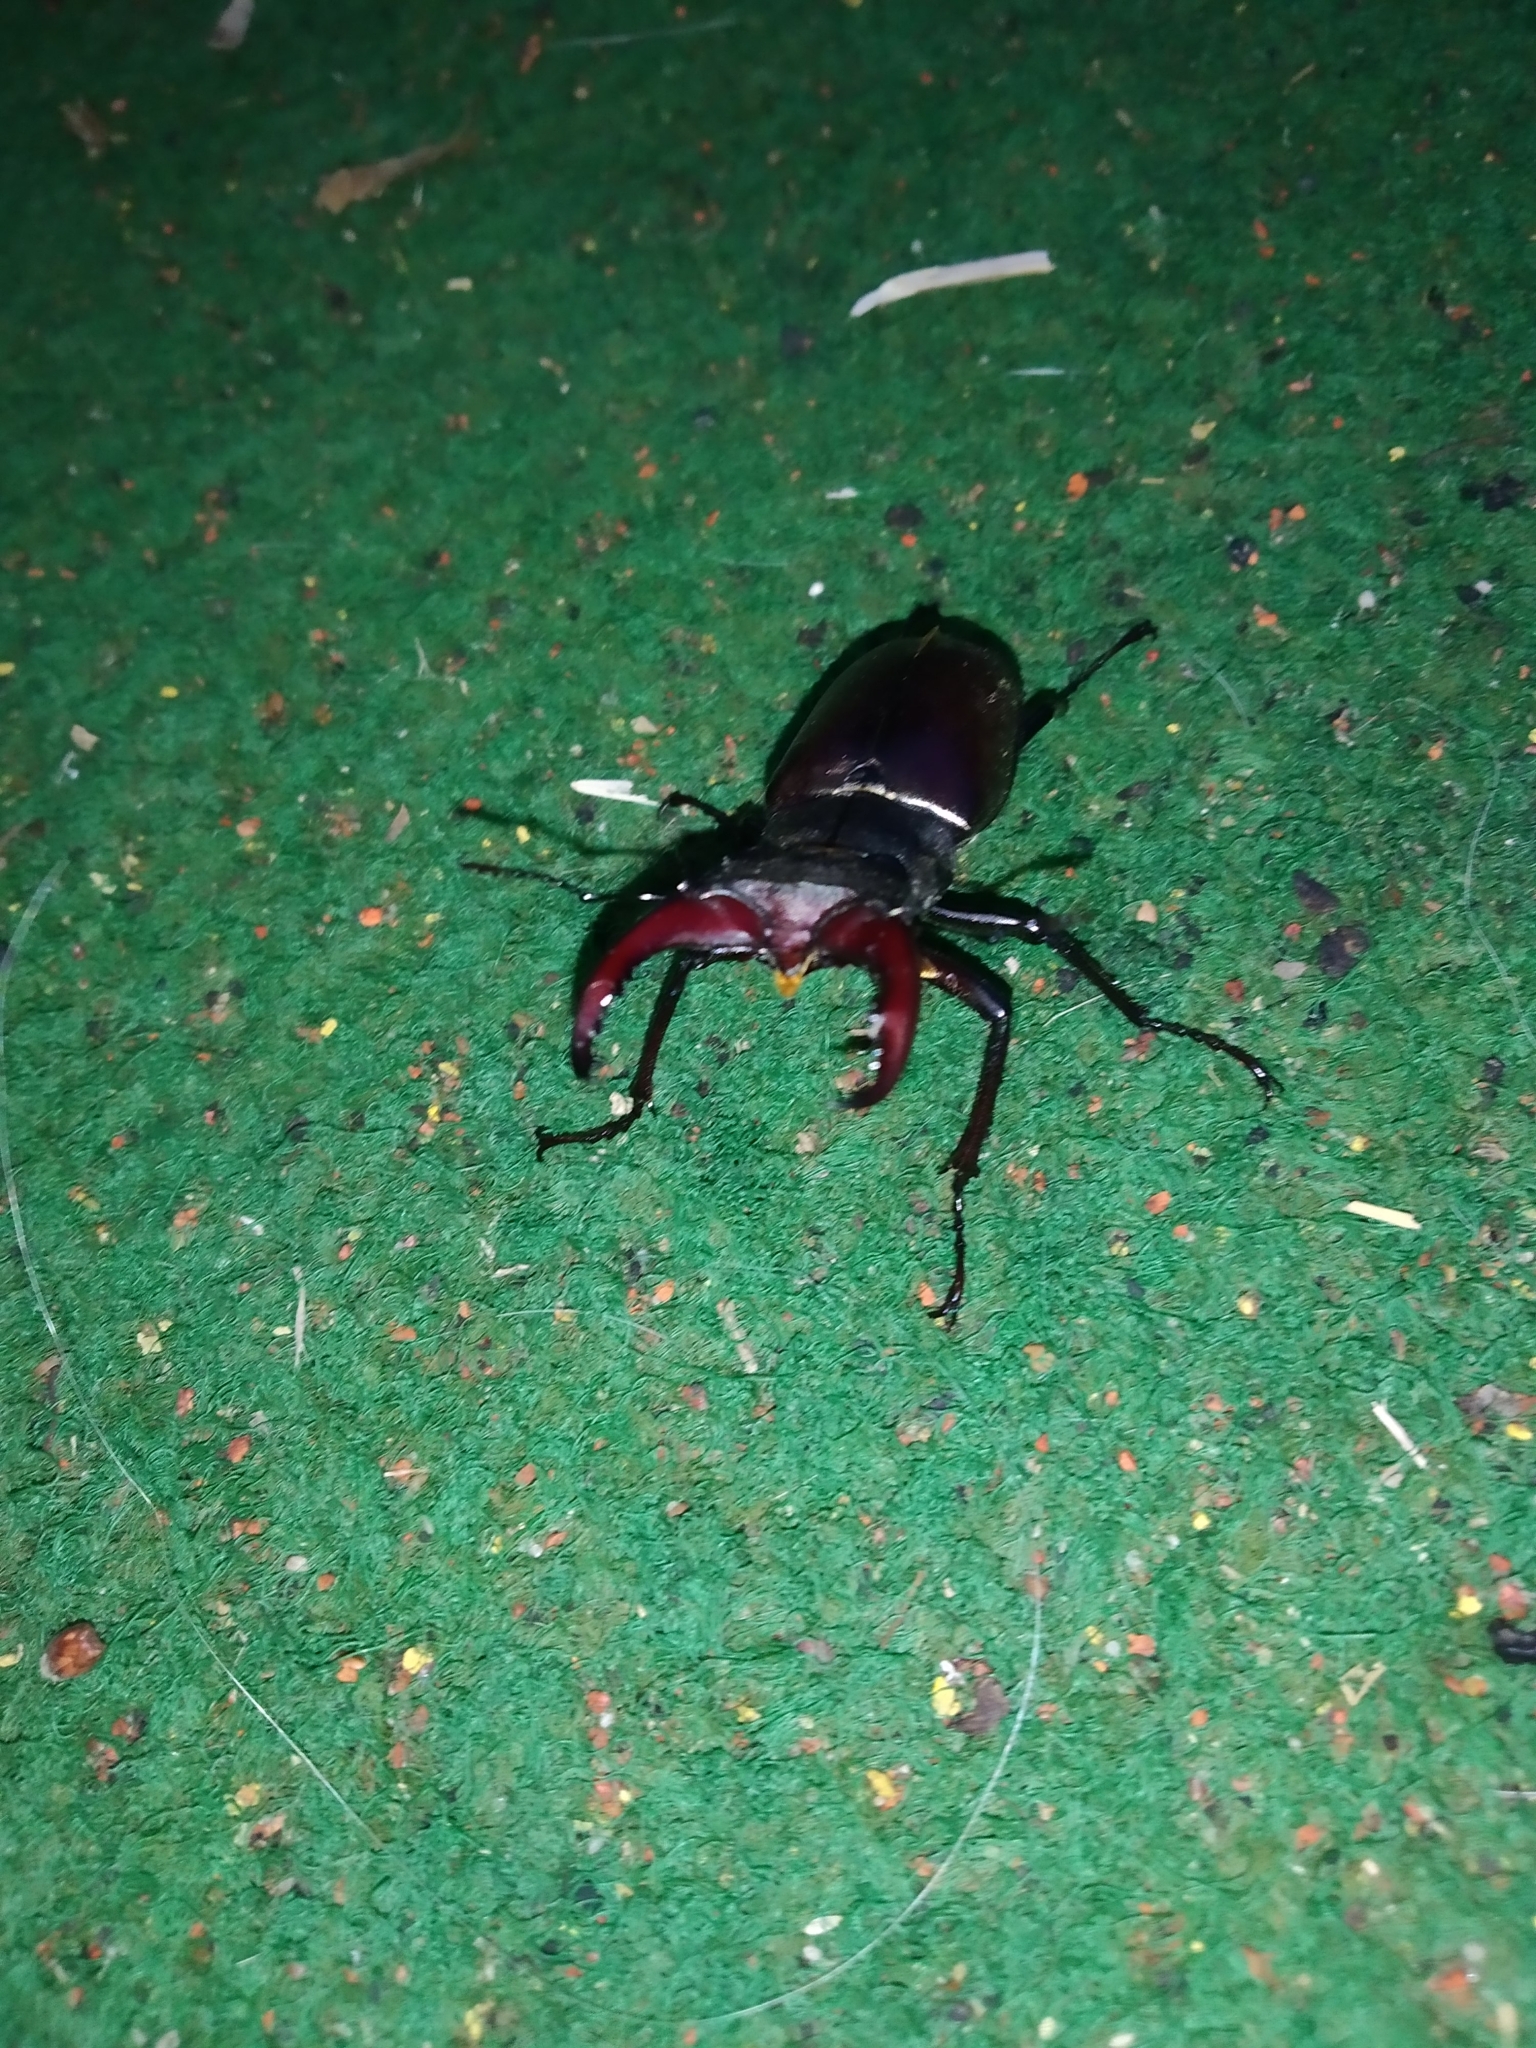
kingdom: Animalia
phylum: Arthropoda
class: Insecta
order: Coleoptera
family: Lucanidae
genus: Lucanus
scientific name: Lucanus cervus
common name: Stag beetle
